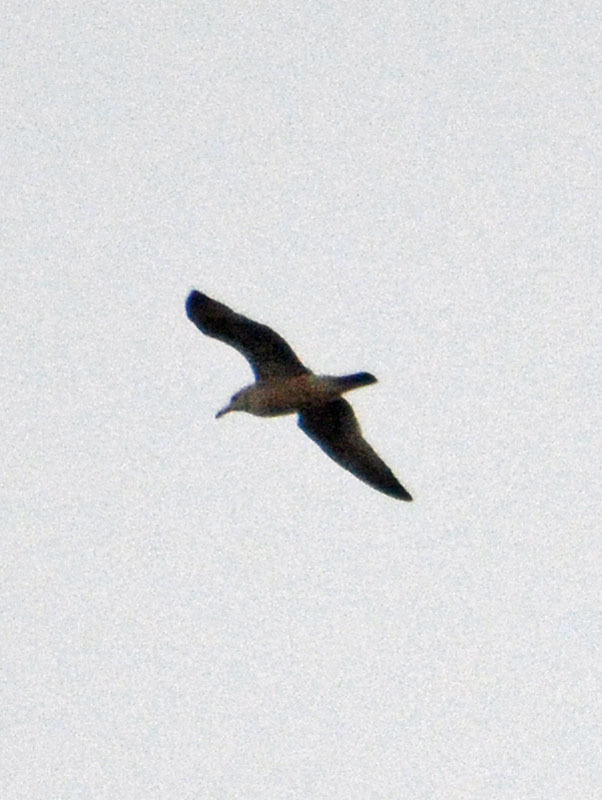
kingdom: Animalia
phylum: Chordata
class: Aves
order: Charadriiformes
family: Laridae
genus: Larus
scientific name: Larus delawarensis
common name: Ring-billed gull
